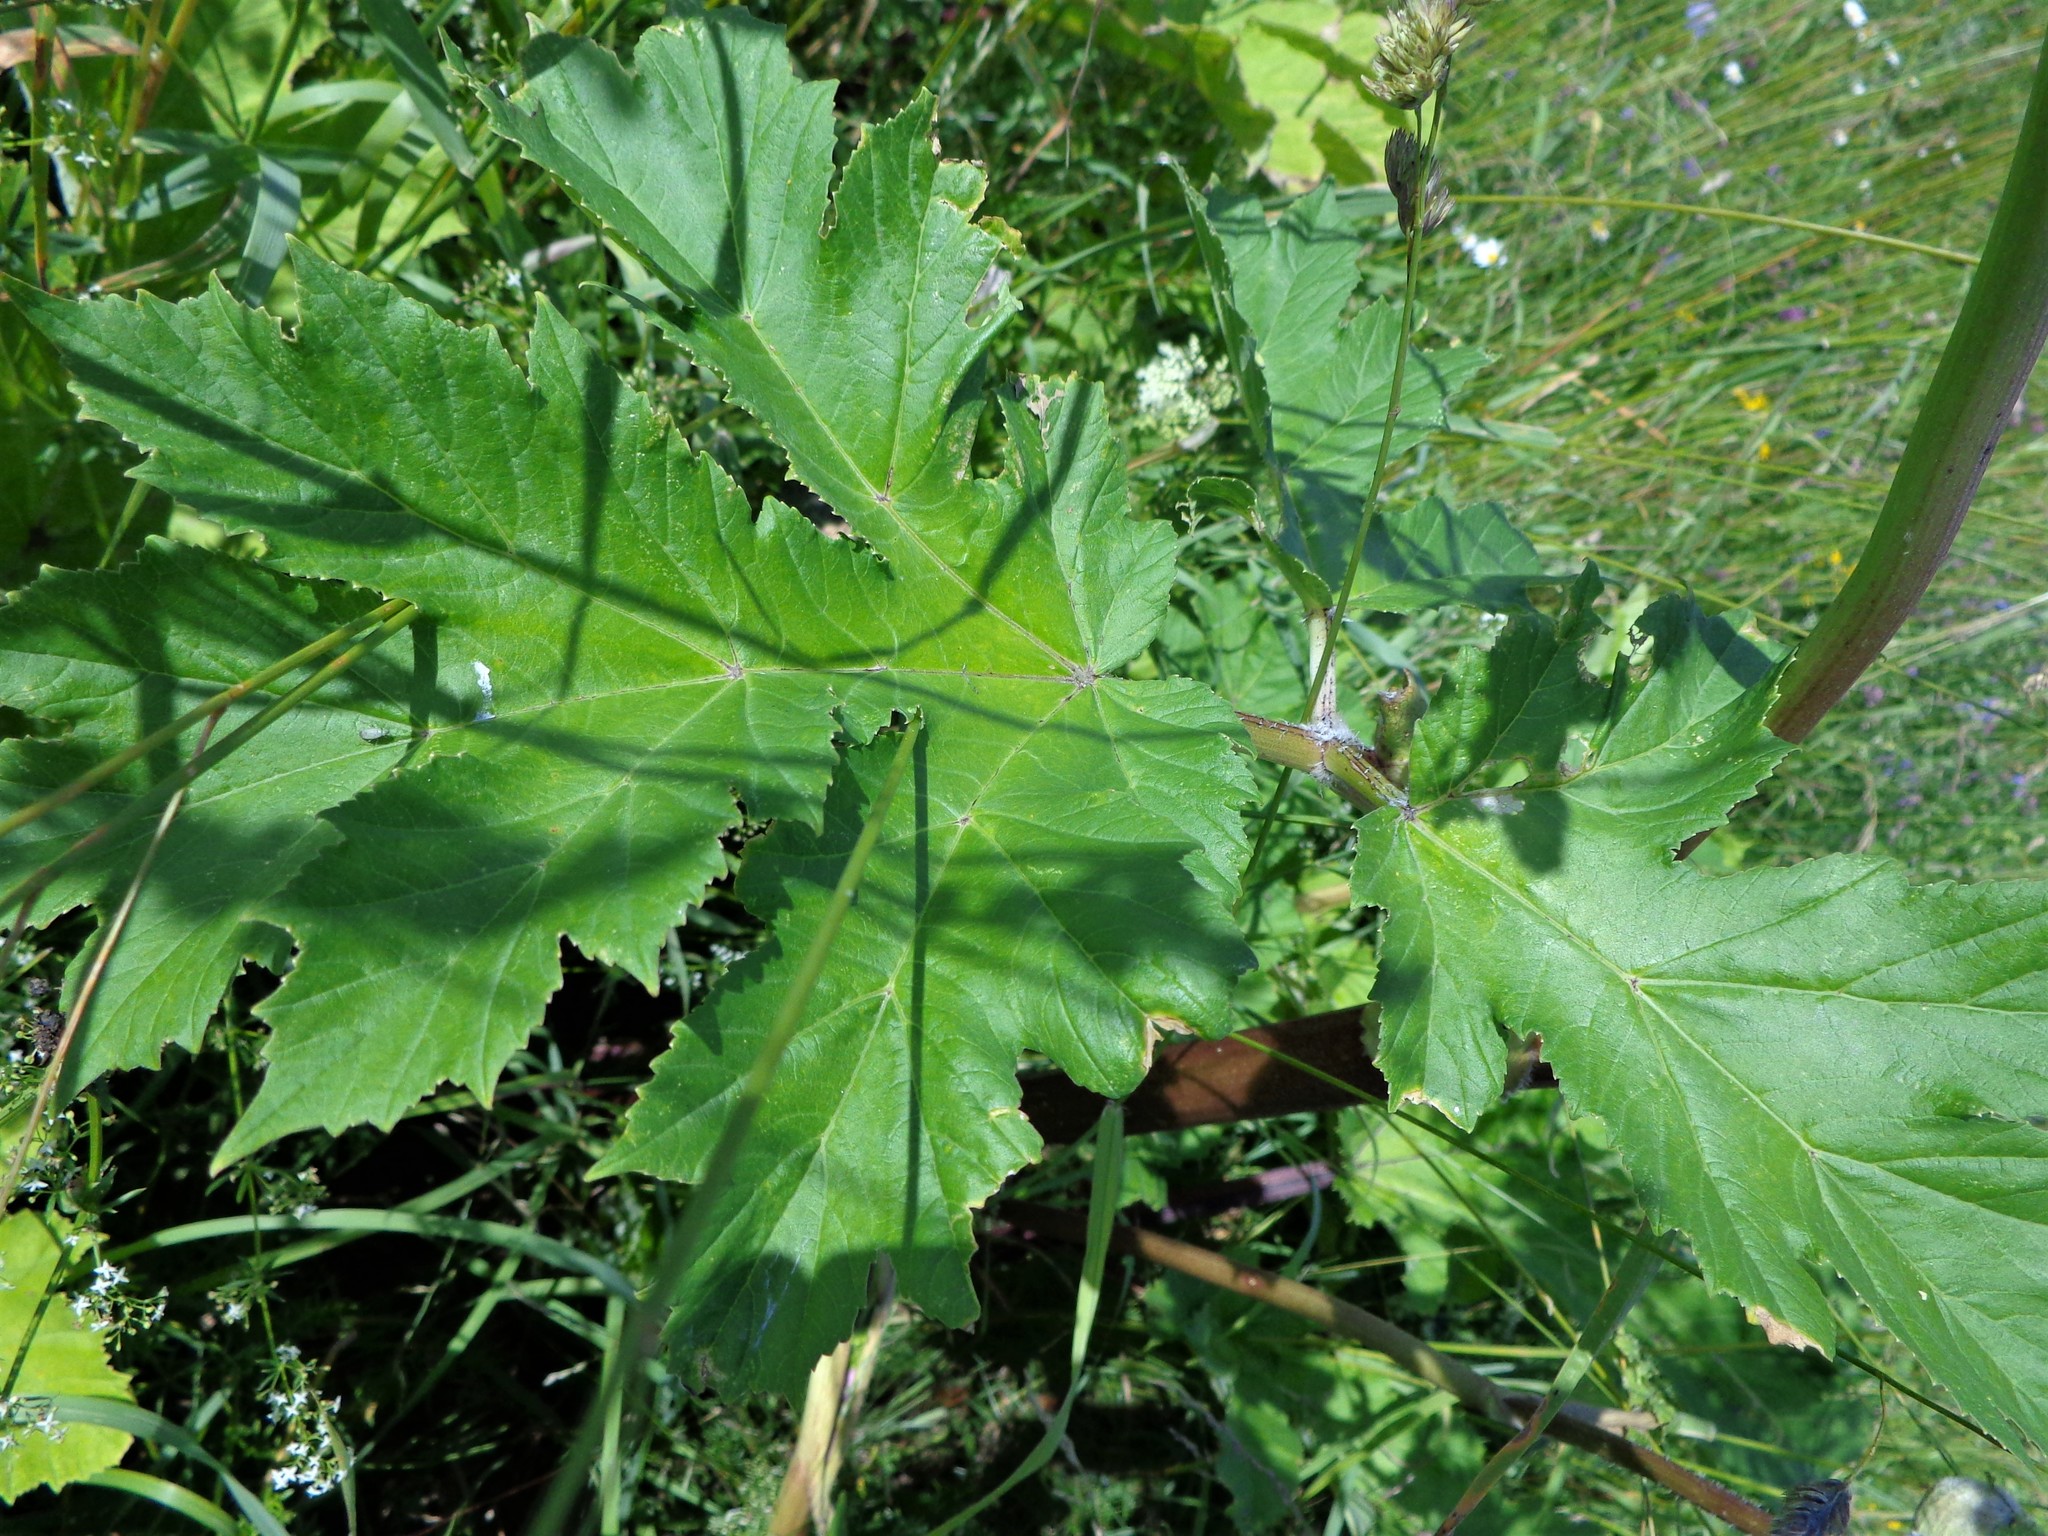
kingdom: Plantae
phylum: Tracheophyta
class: Magnoliopsida
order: Apiales
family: Apiaceae
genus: Heracleum
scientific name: Heracleum sosnowskyi
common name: Sosnowsky's hogweed
